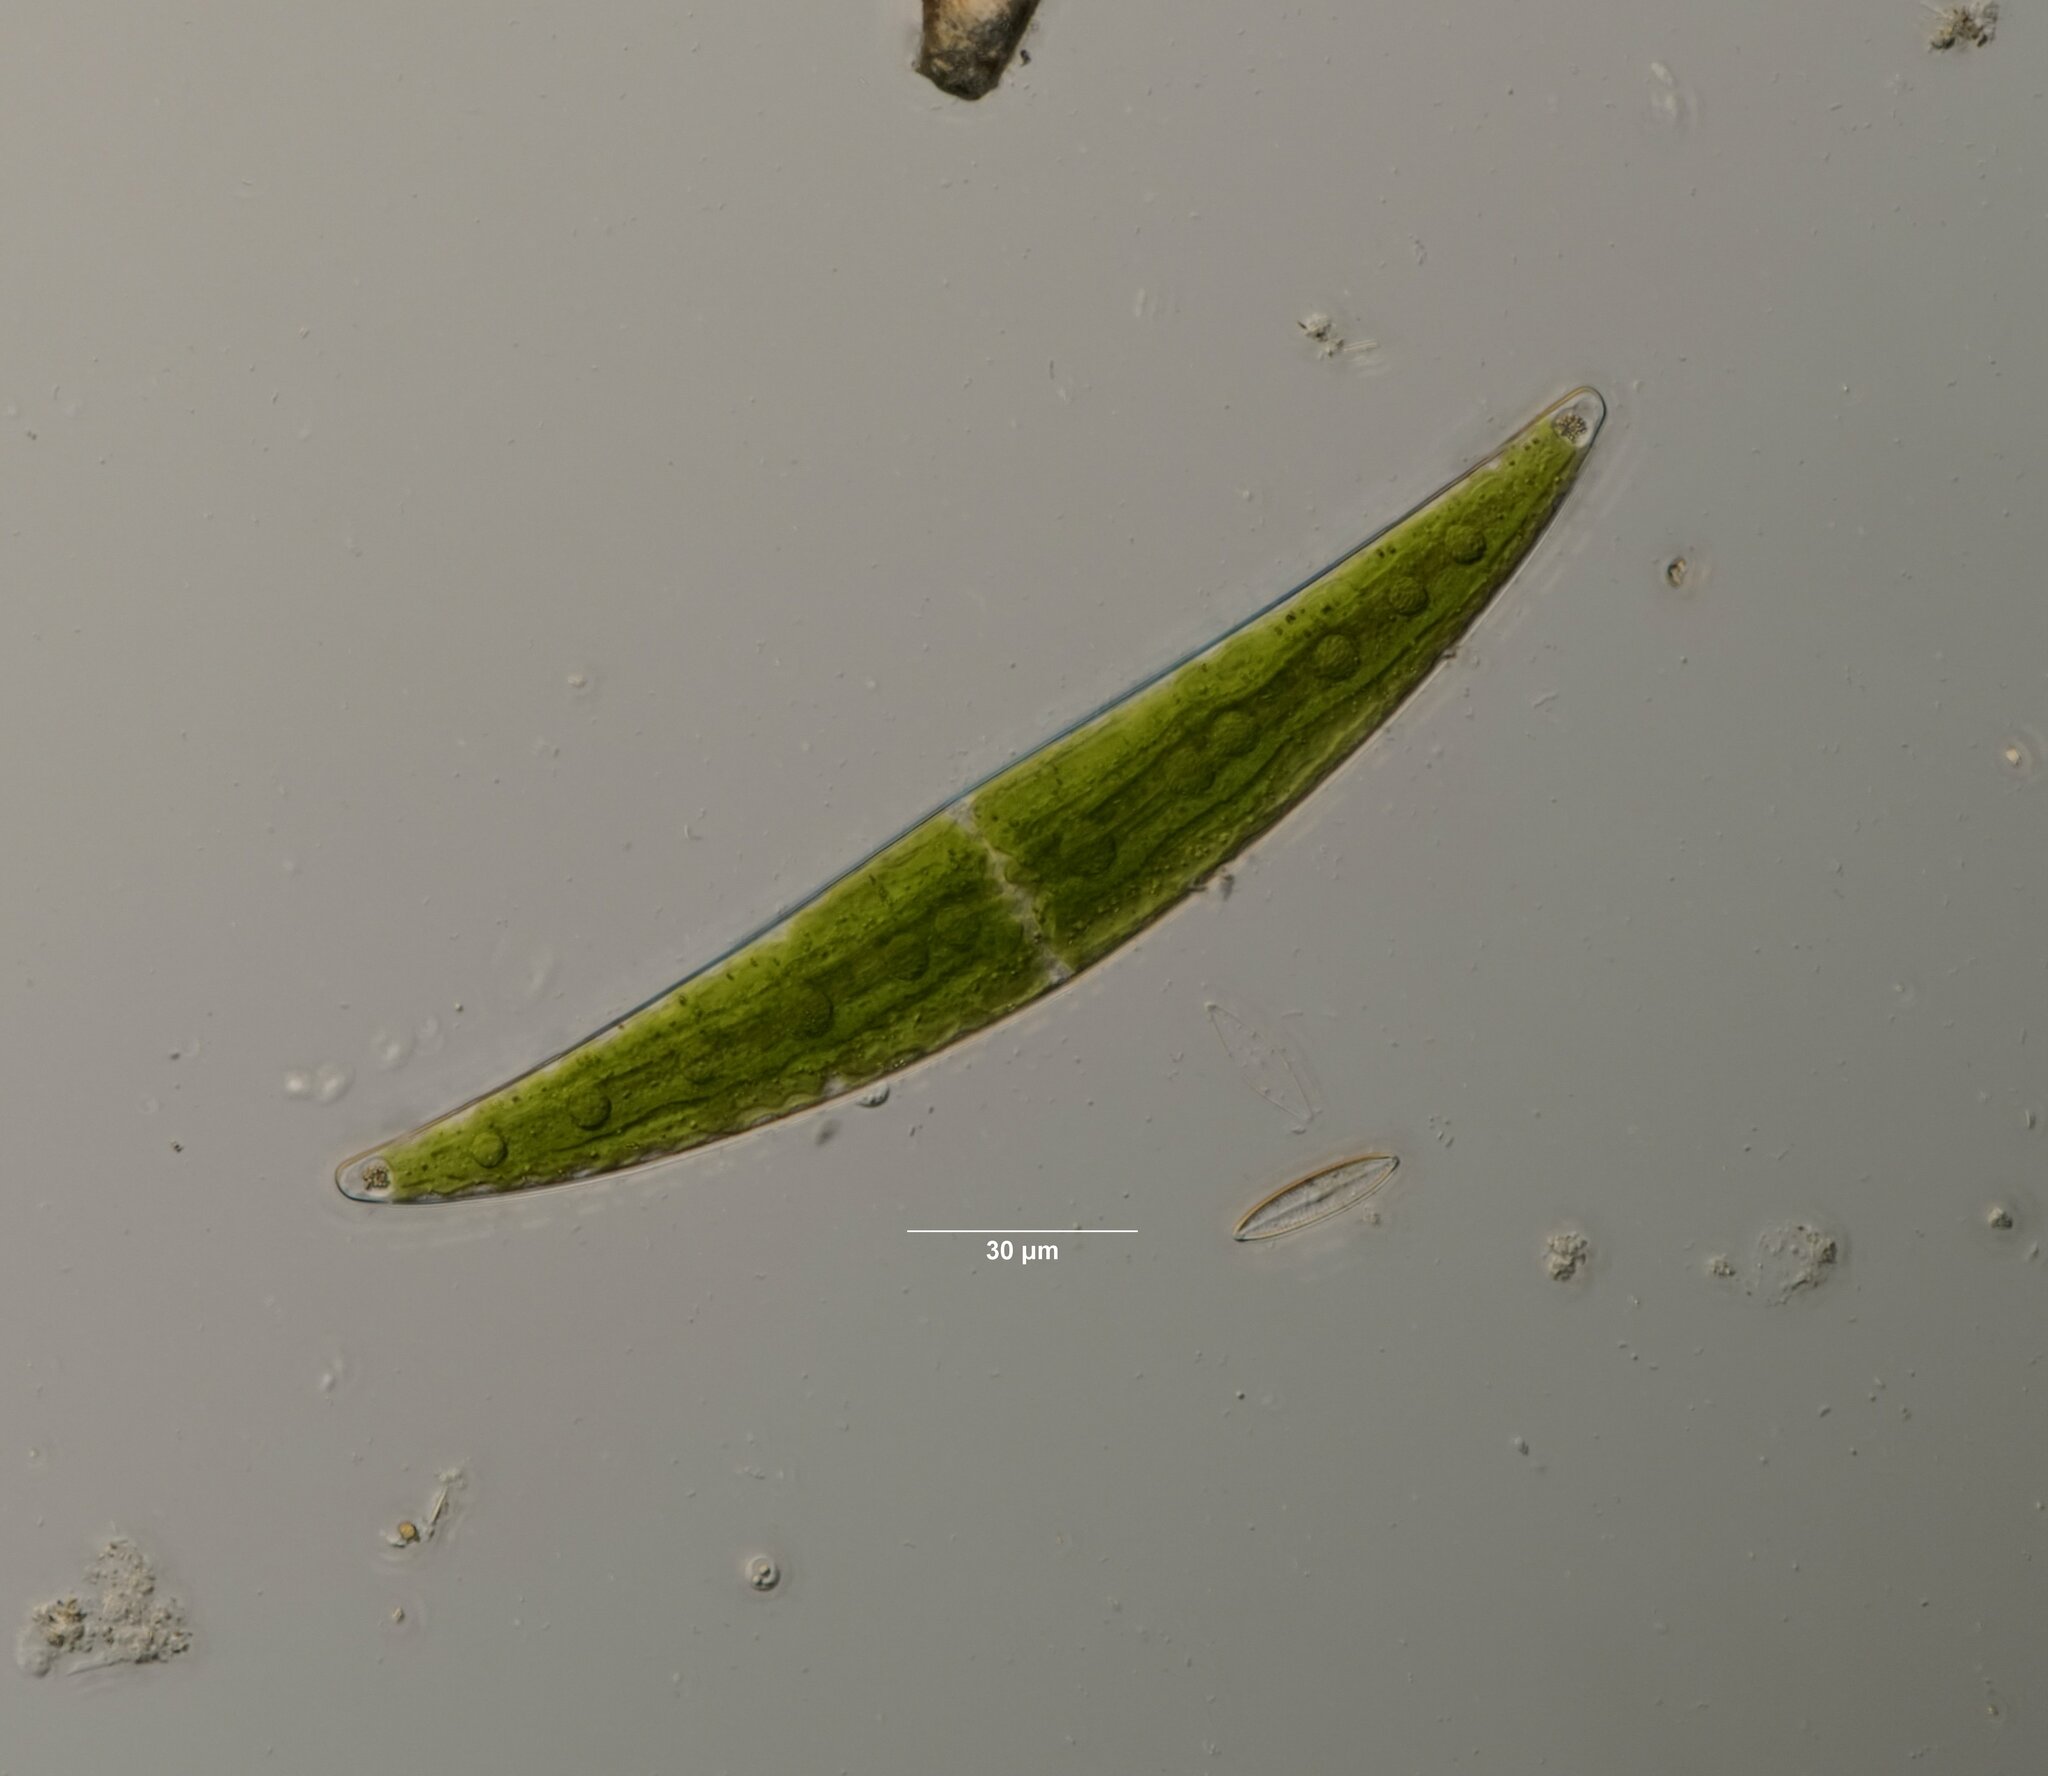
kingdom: Plantae
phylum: Charophyta
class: Zygnematophyceae
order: Zygnematales
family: Closteriaceae
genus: Closterium
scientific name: Closterium moniliferum
